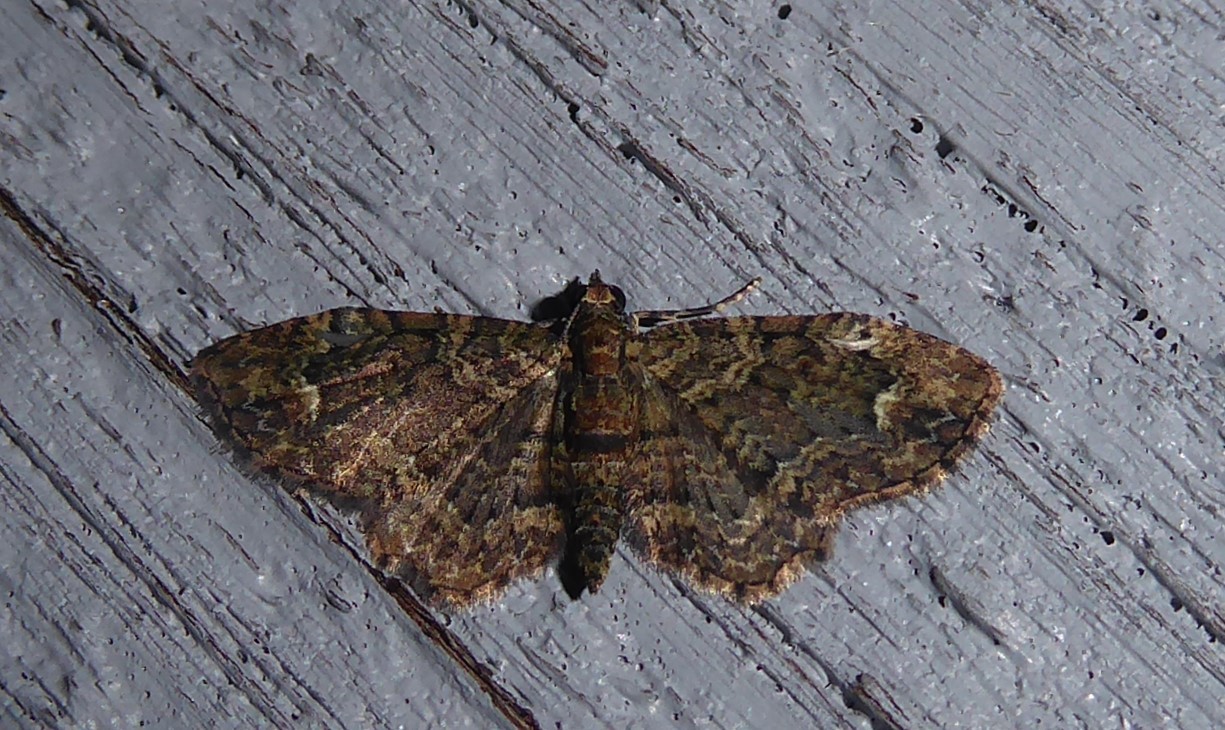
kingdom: Animalia
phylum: Arthropoda
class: Insecta
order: Lepidoptera
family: Geometridae
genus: Pasiphilodes
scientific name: Pasiphilodes testulata
